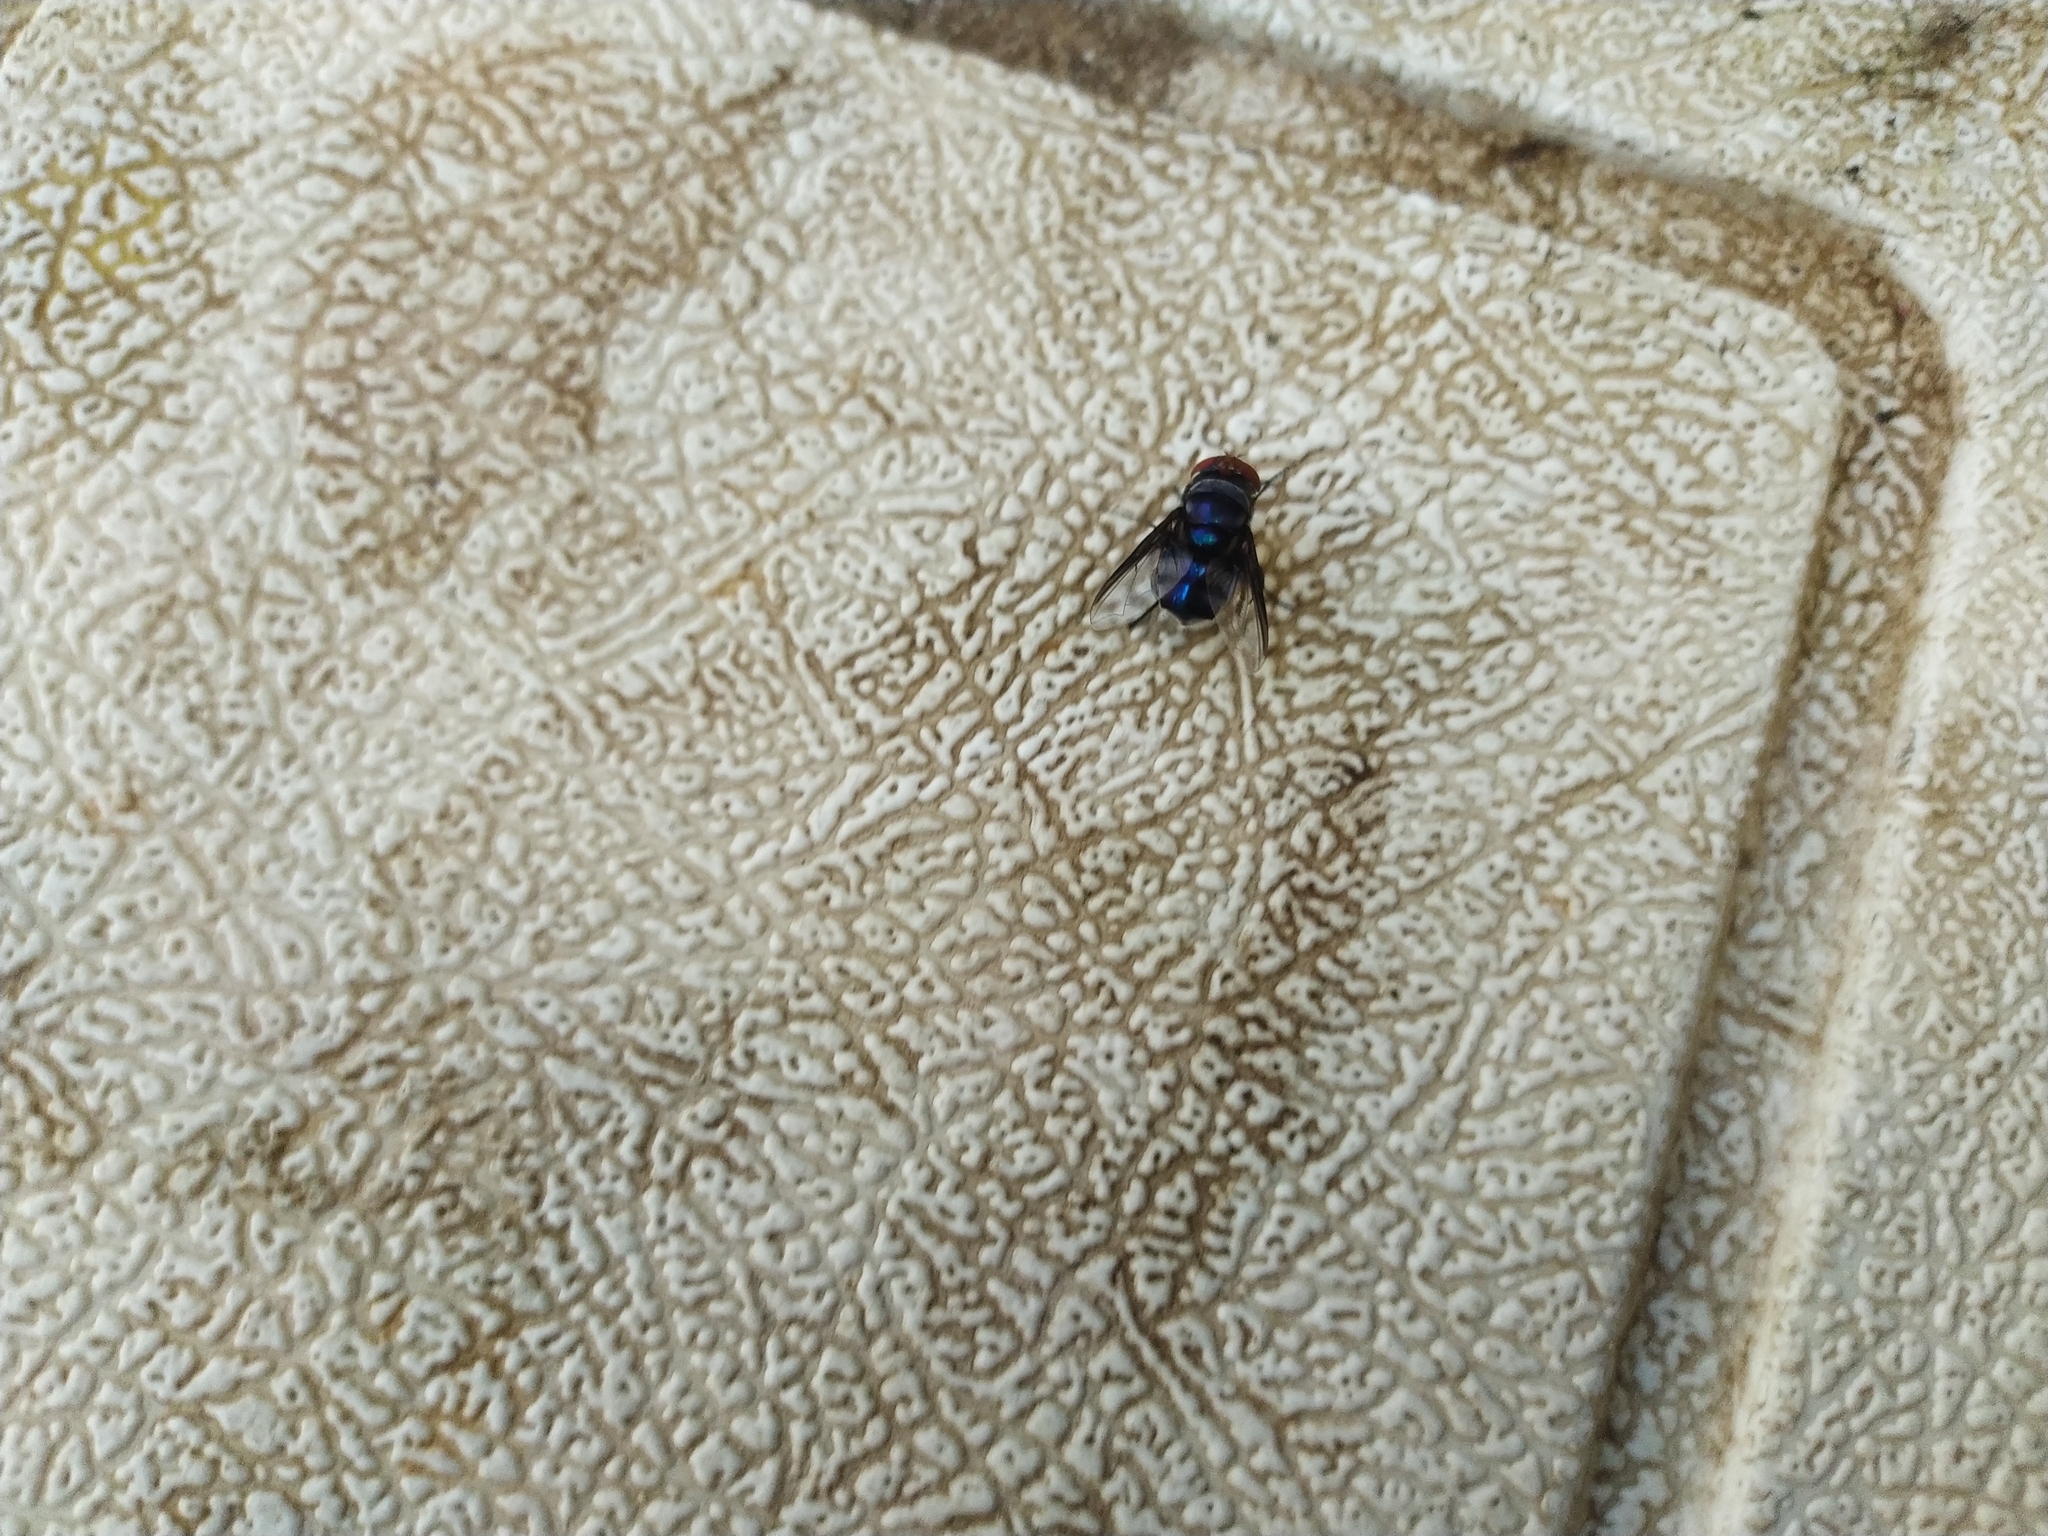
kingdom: Animalia
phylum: Arthropoda
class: Insecta
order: Diptera
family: Calliphoridae
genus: Chrysomya
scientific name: Chrysomya marginalis
